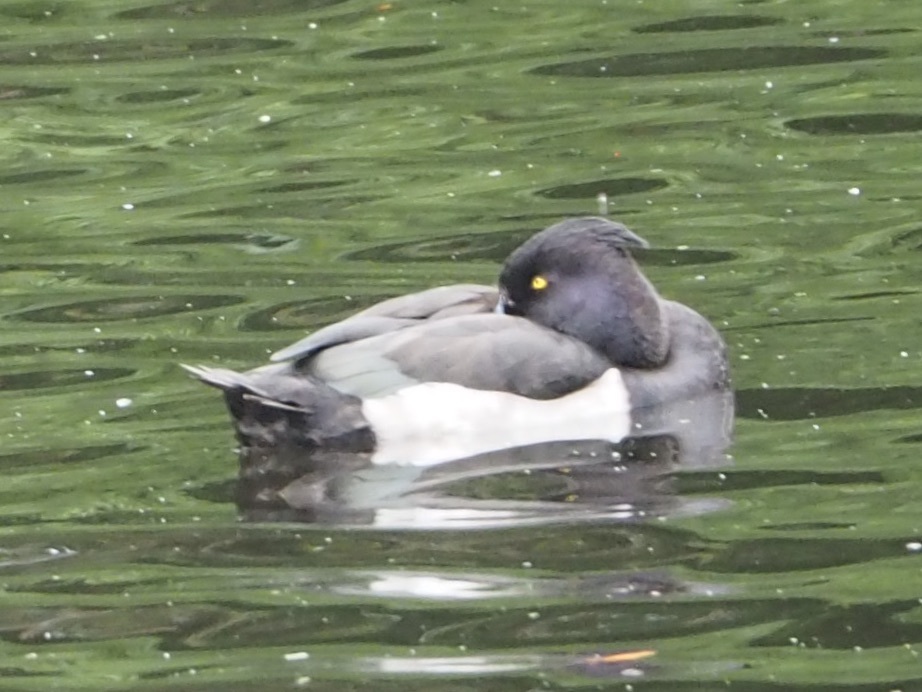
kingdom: Animalia
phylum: Chordata
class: Aves
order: Anseriformes
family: Anatidae
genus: Aythya
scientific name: Aythya fuligula
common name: Tufted duck
